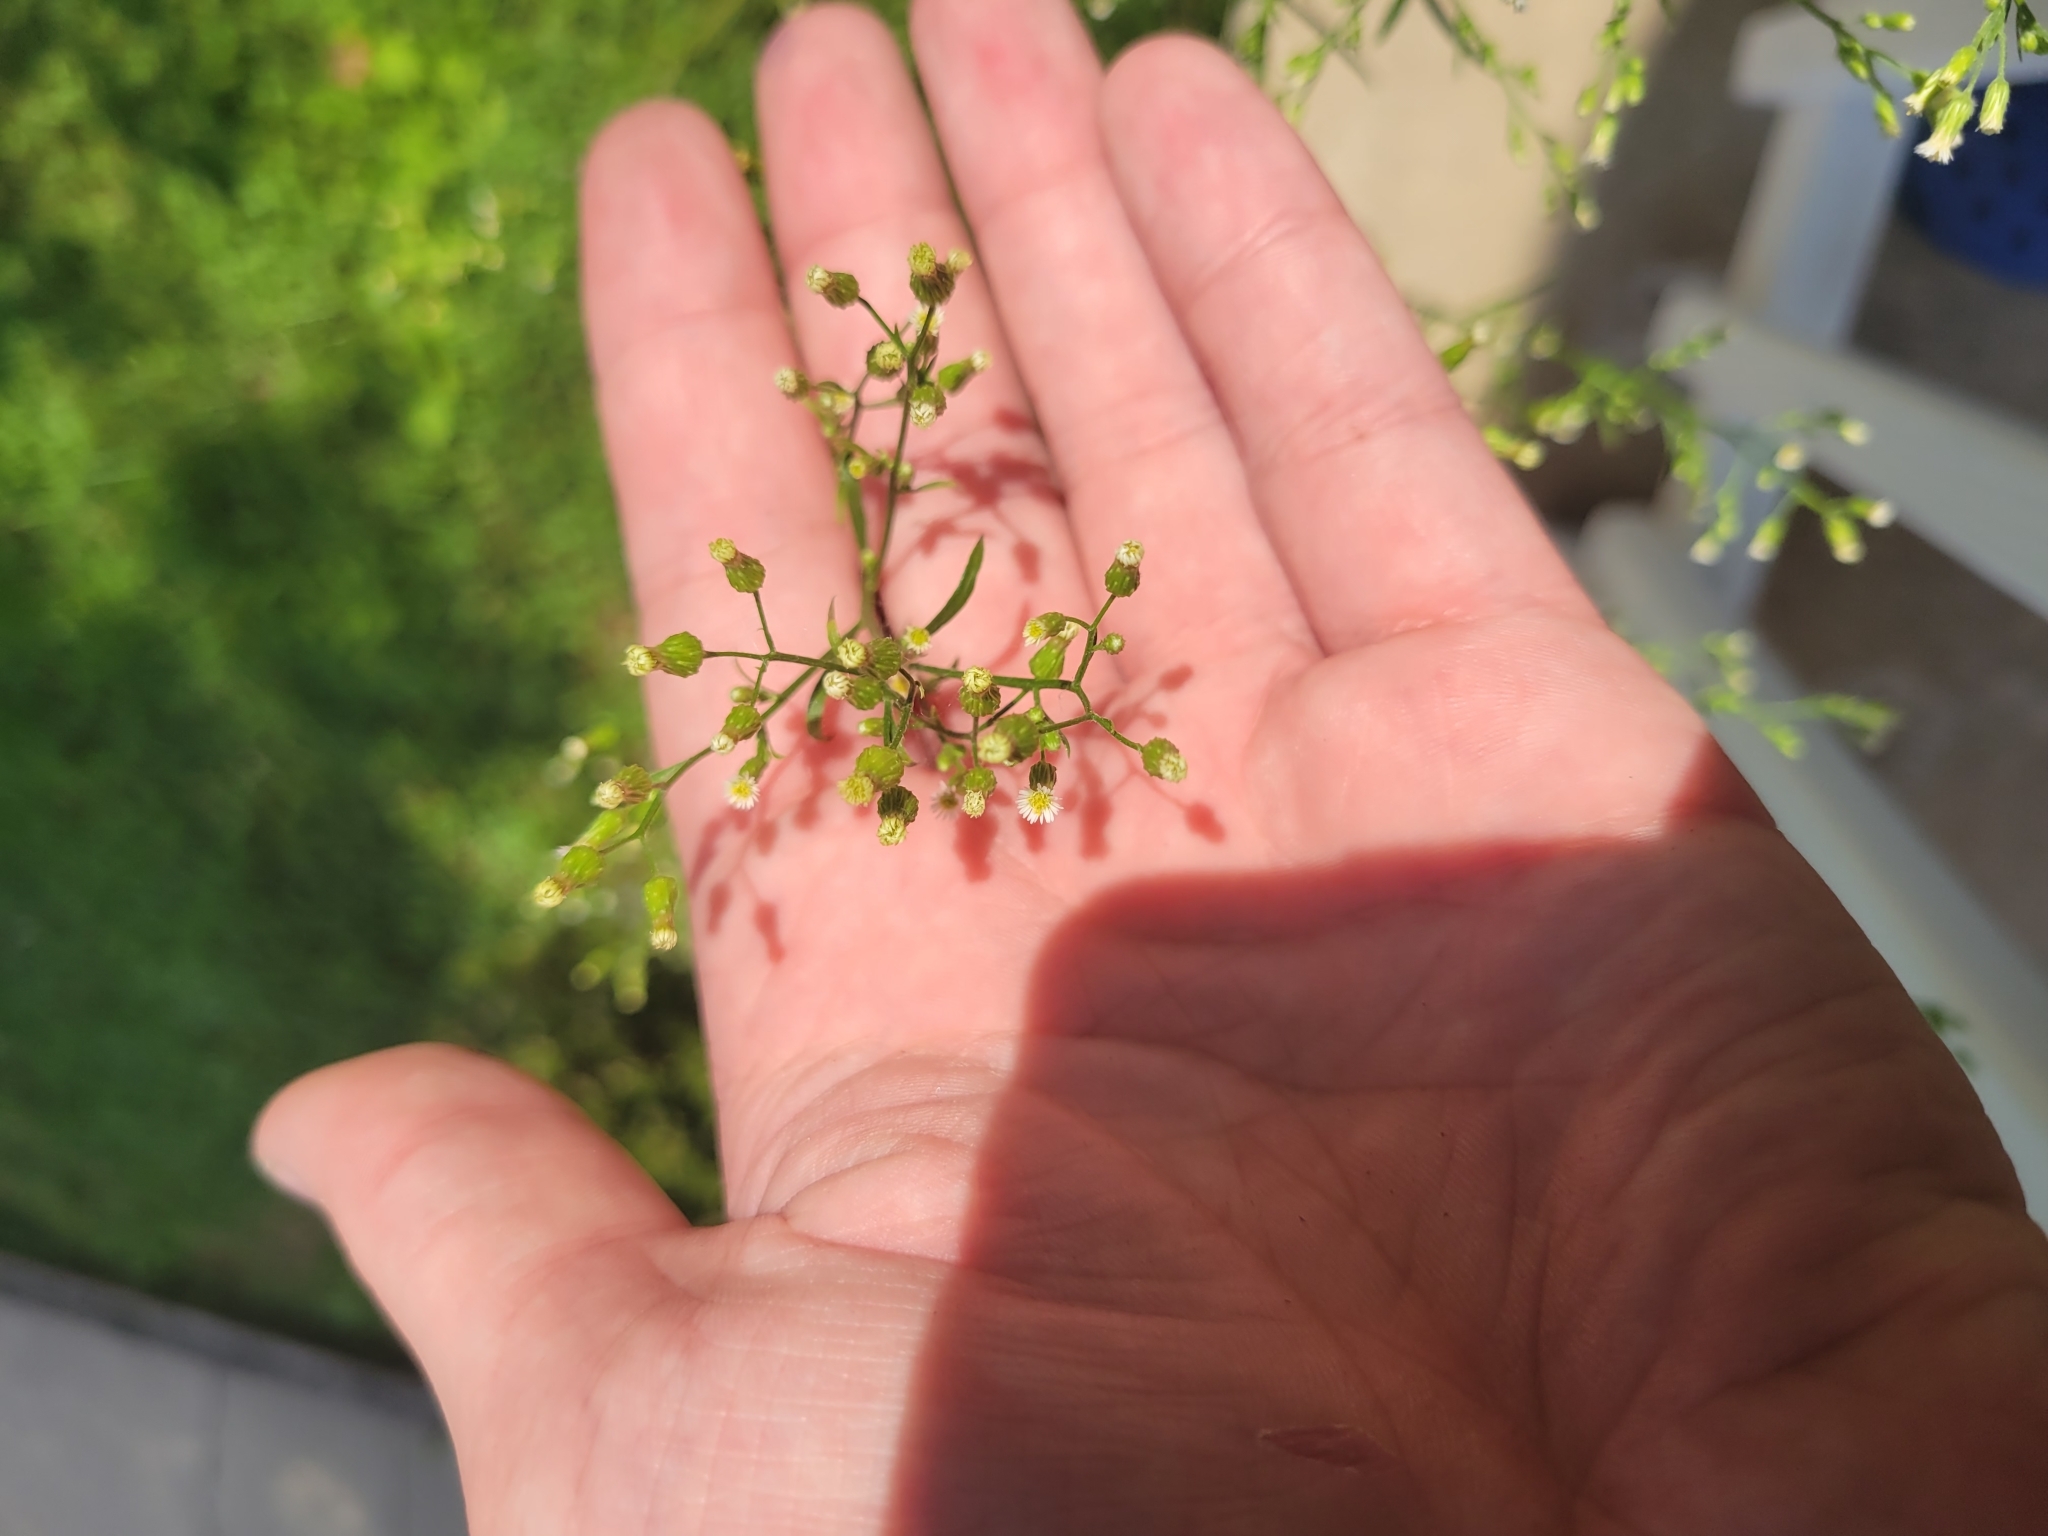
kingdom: Plantae
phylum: Tracheophyta
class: Magnoliopsida
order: Asterales
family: Asteraceae
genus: Erigeron
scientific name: Erigeron canadensis
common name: Canadian fleabane
